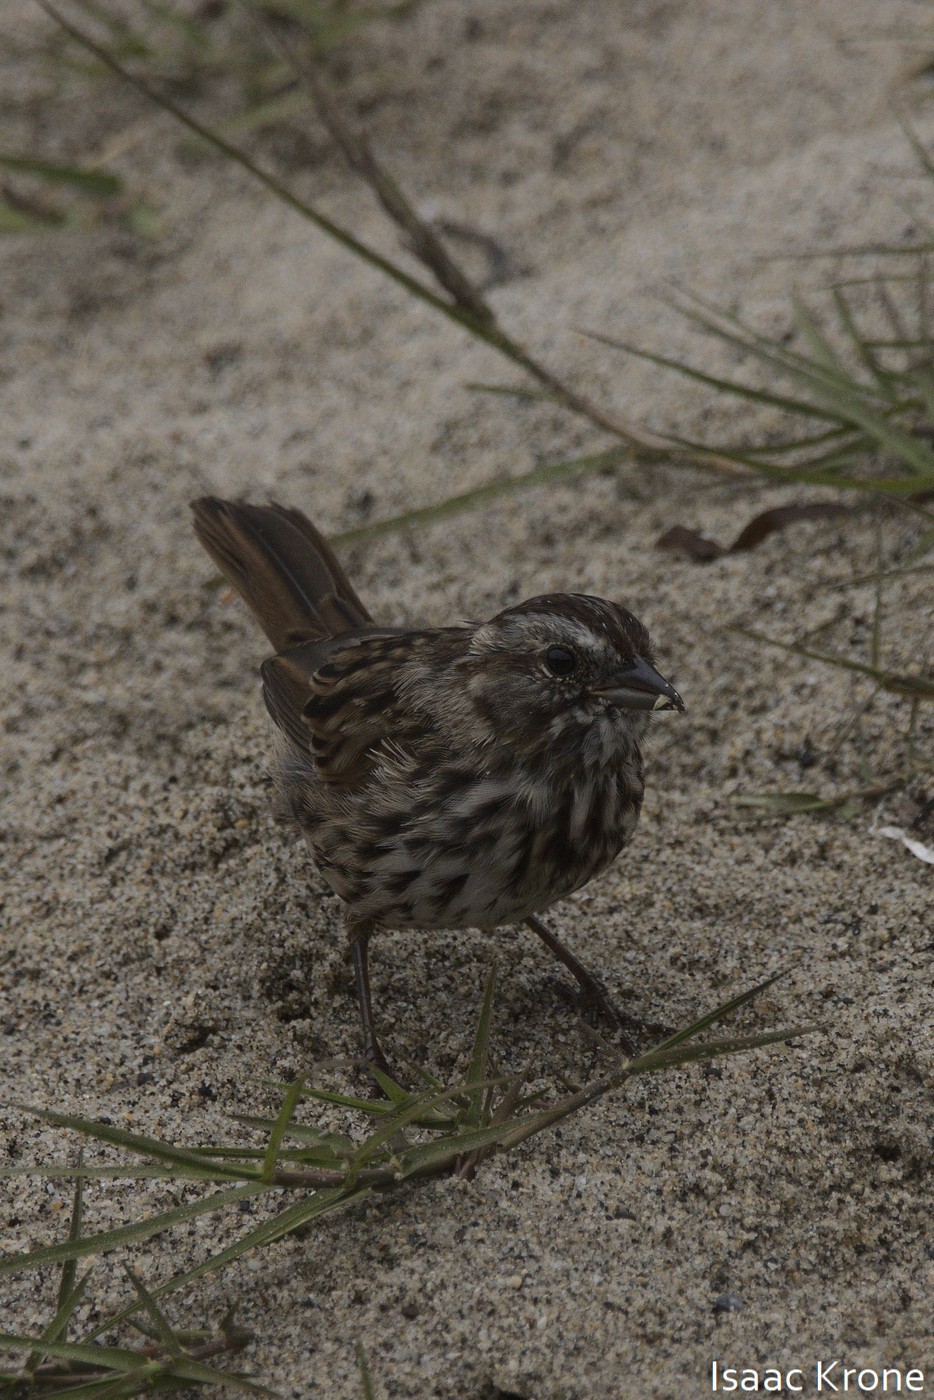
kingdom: Animalia
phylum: Chordata
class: Aves
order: Passeriformes
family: Passerellidae
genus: Melospiza
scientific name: Melospiza melodia
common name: Song sparrow
